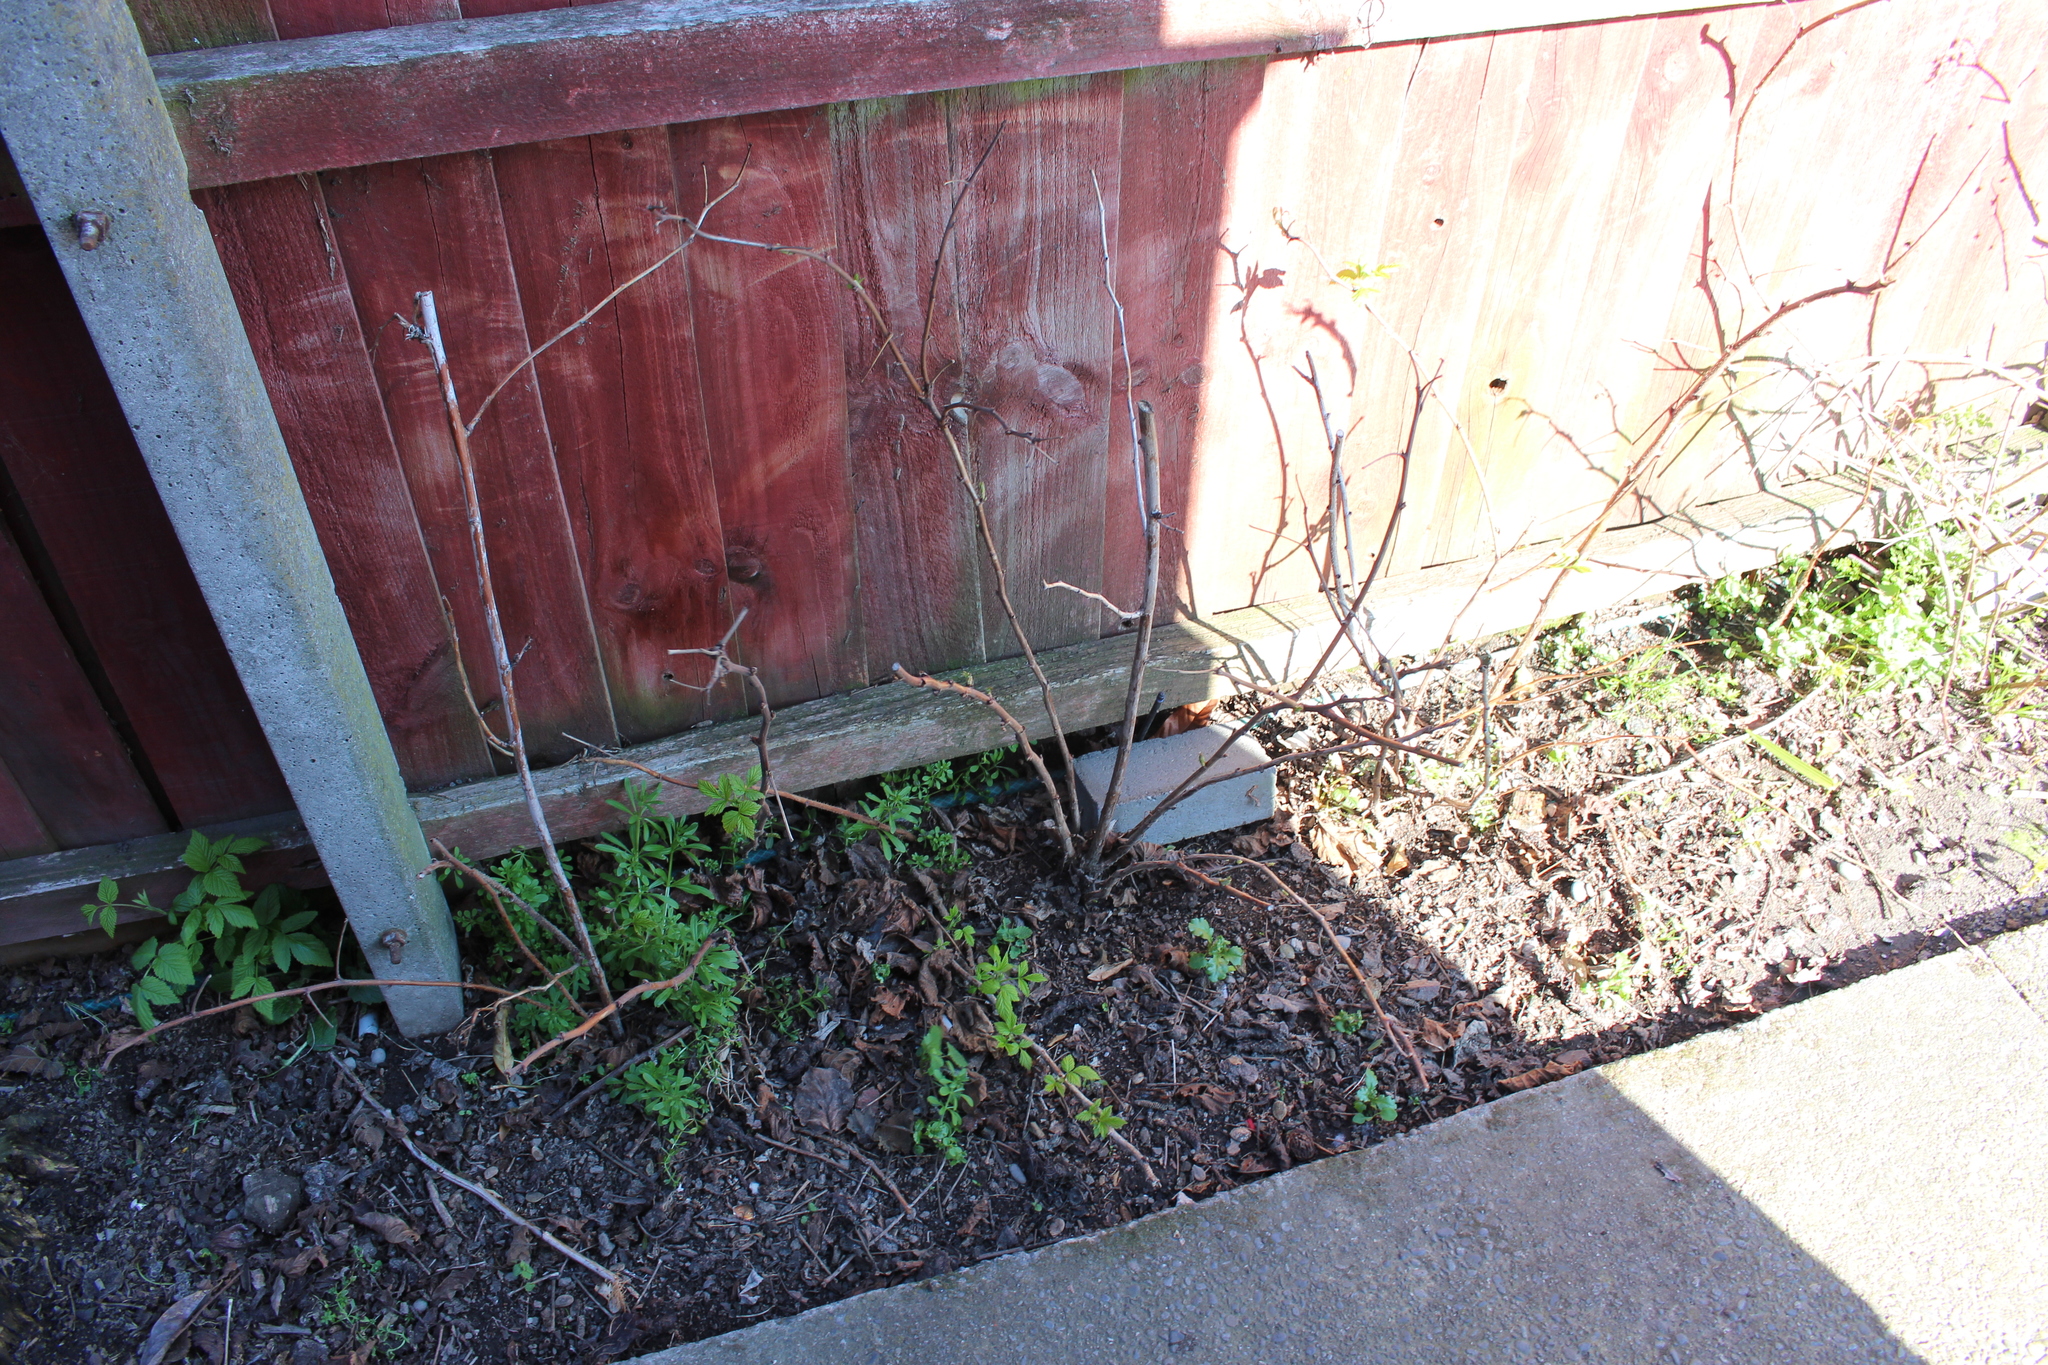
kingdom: Plantae
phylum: Tracheophyta
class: Magnoliopsida
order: Rosales
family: Rosaceae
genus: Rubus
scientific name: Rubus idaeus
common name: Raspberry
